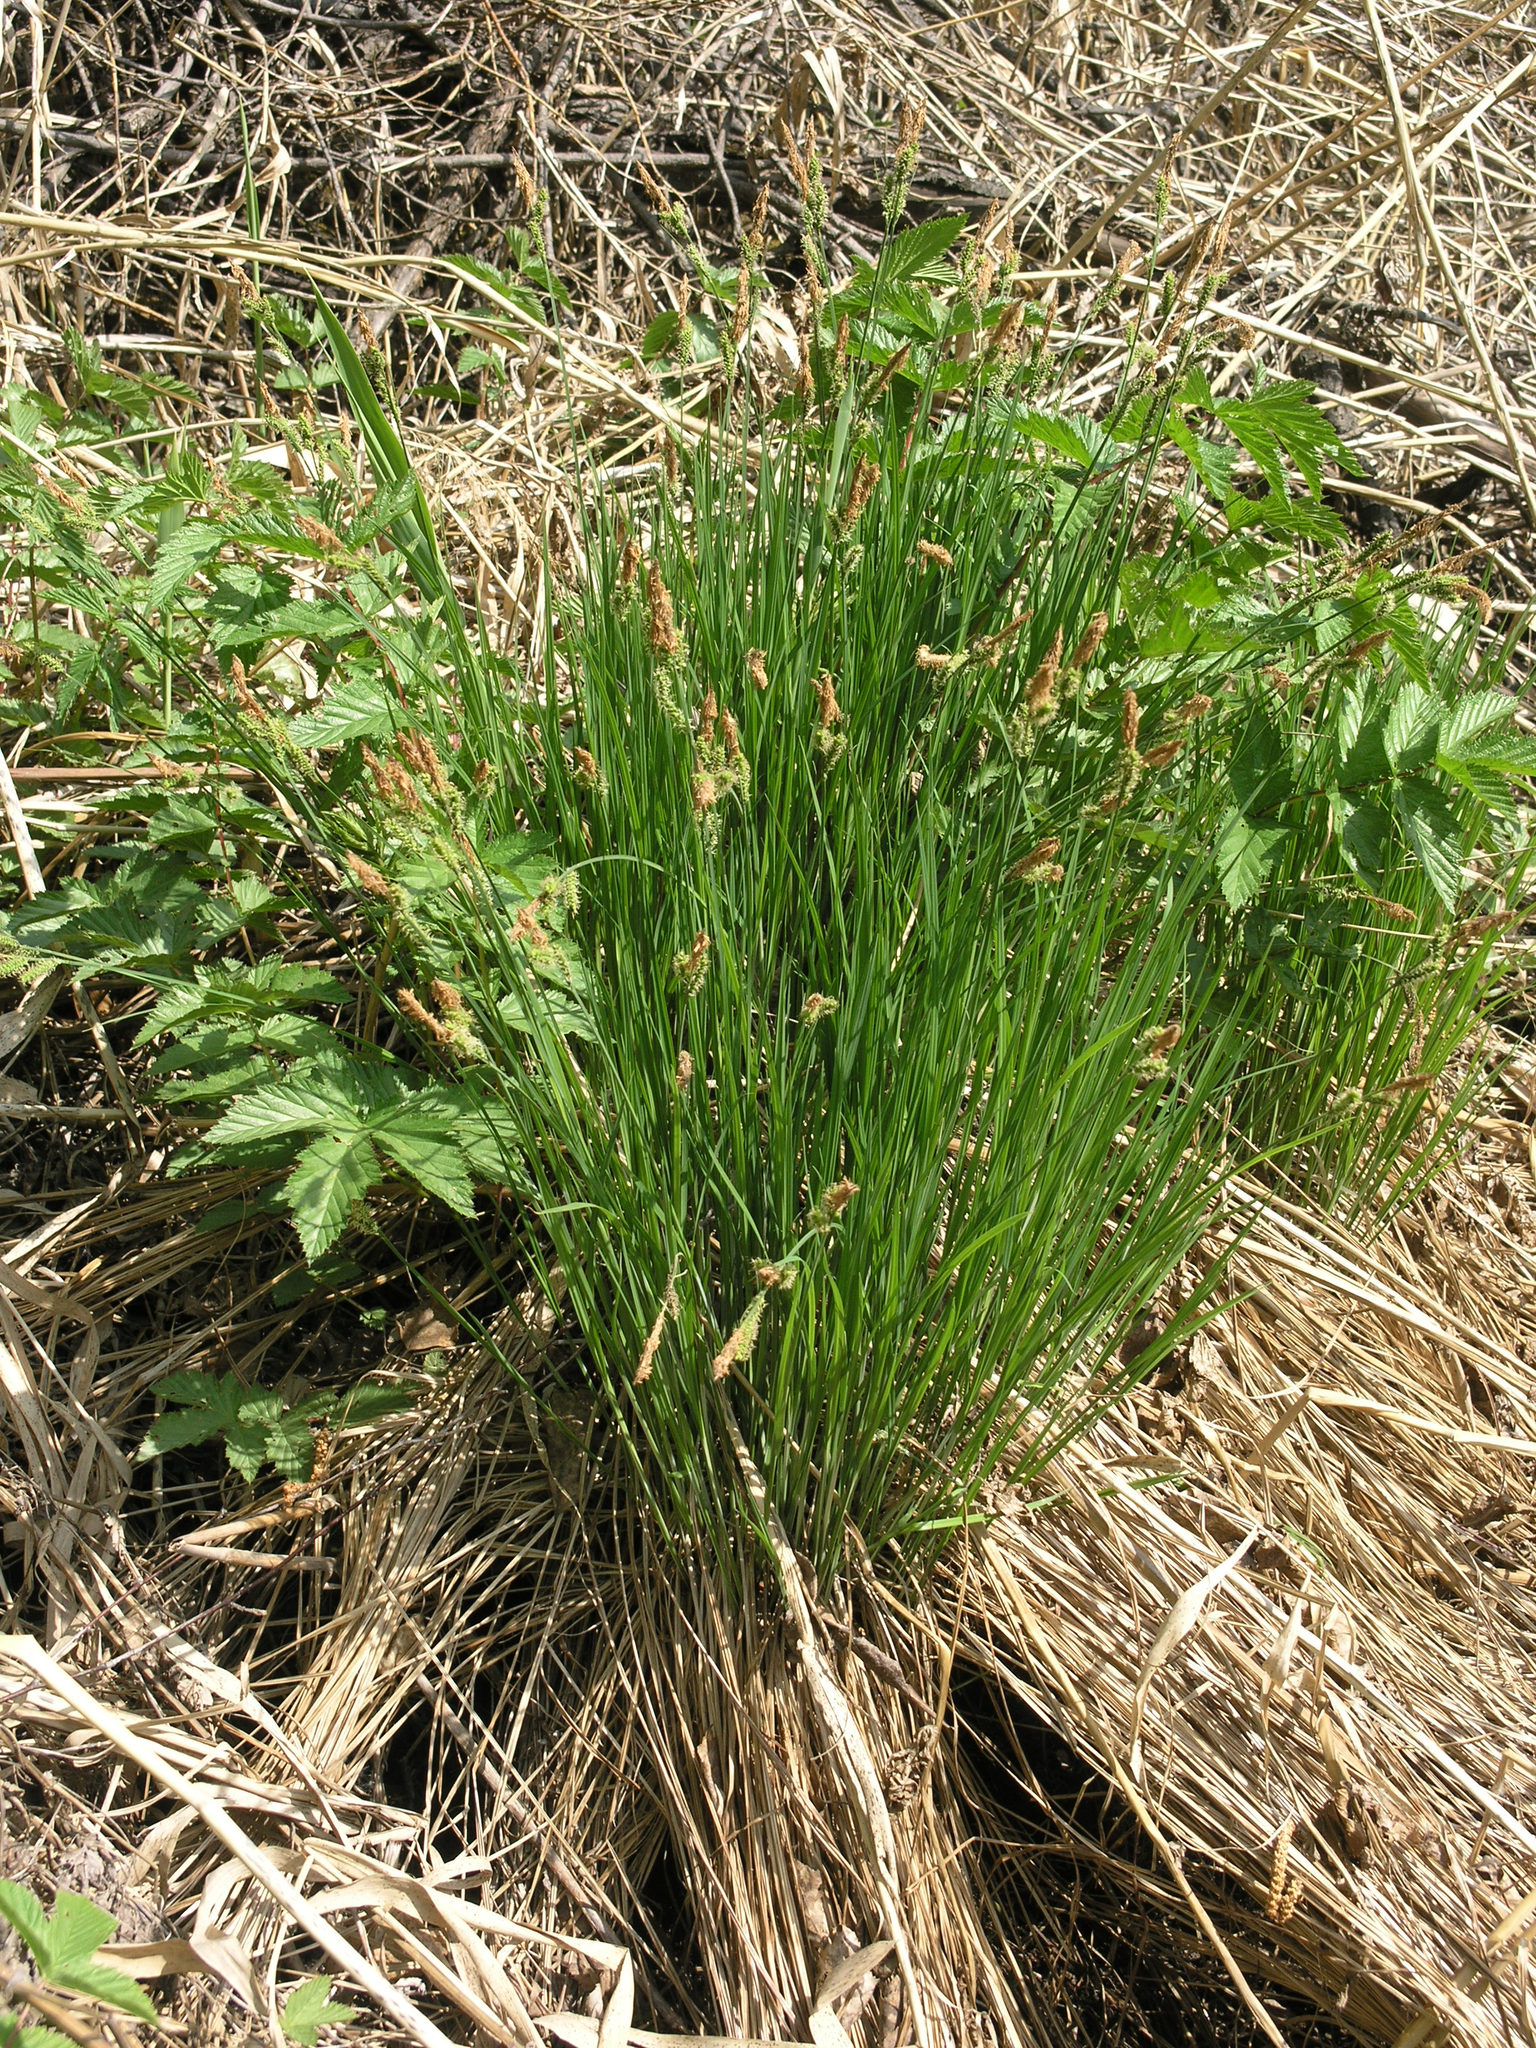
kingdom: Plantae
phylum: Tracheophyta
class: Liliopsida
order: Poales
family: Cyperaceae
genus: Carex
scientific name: Carex cespitosa
